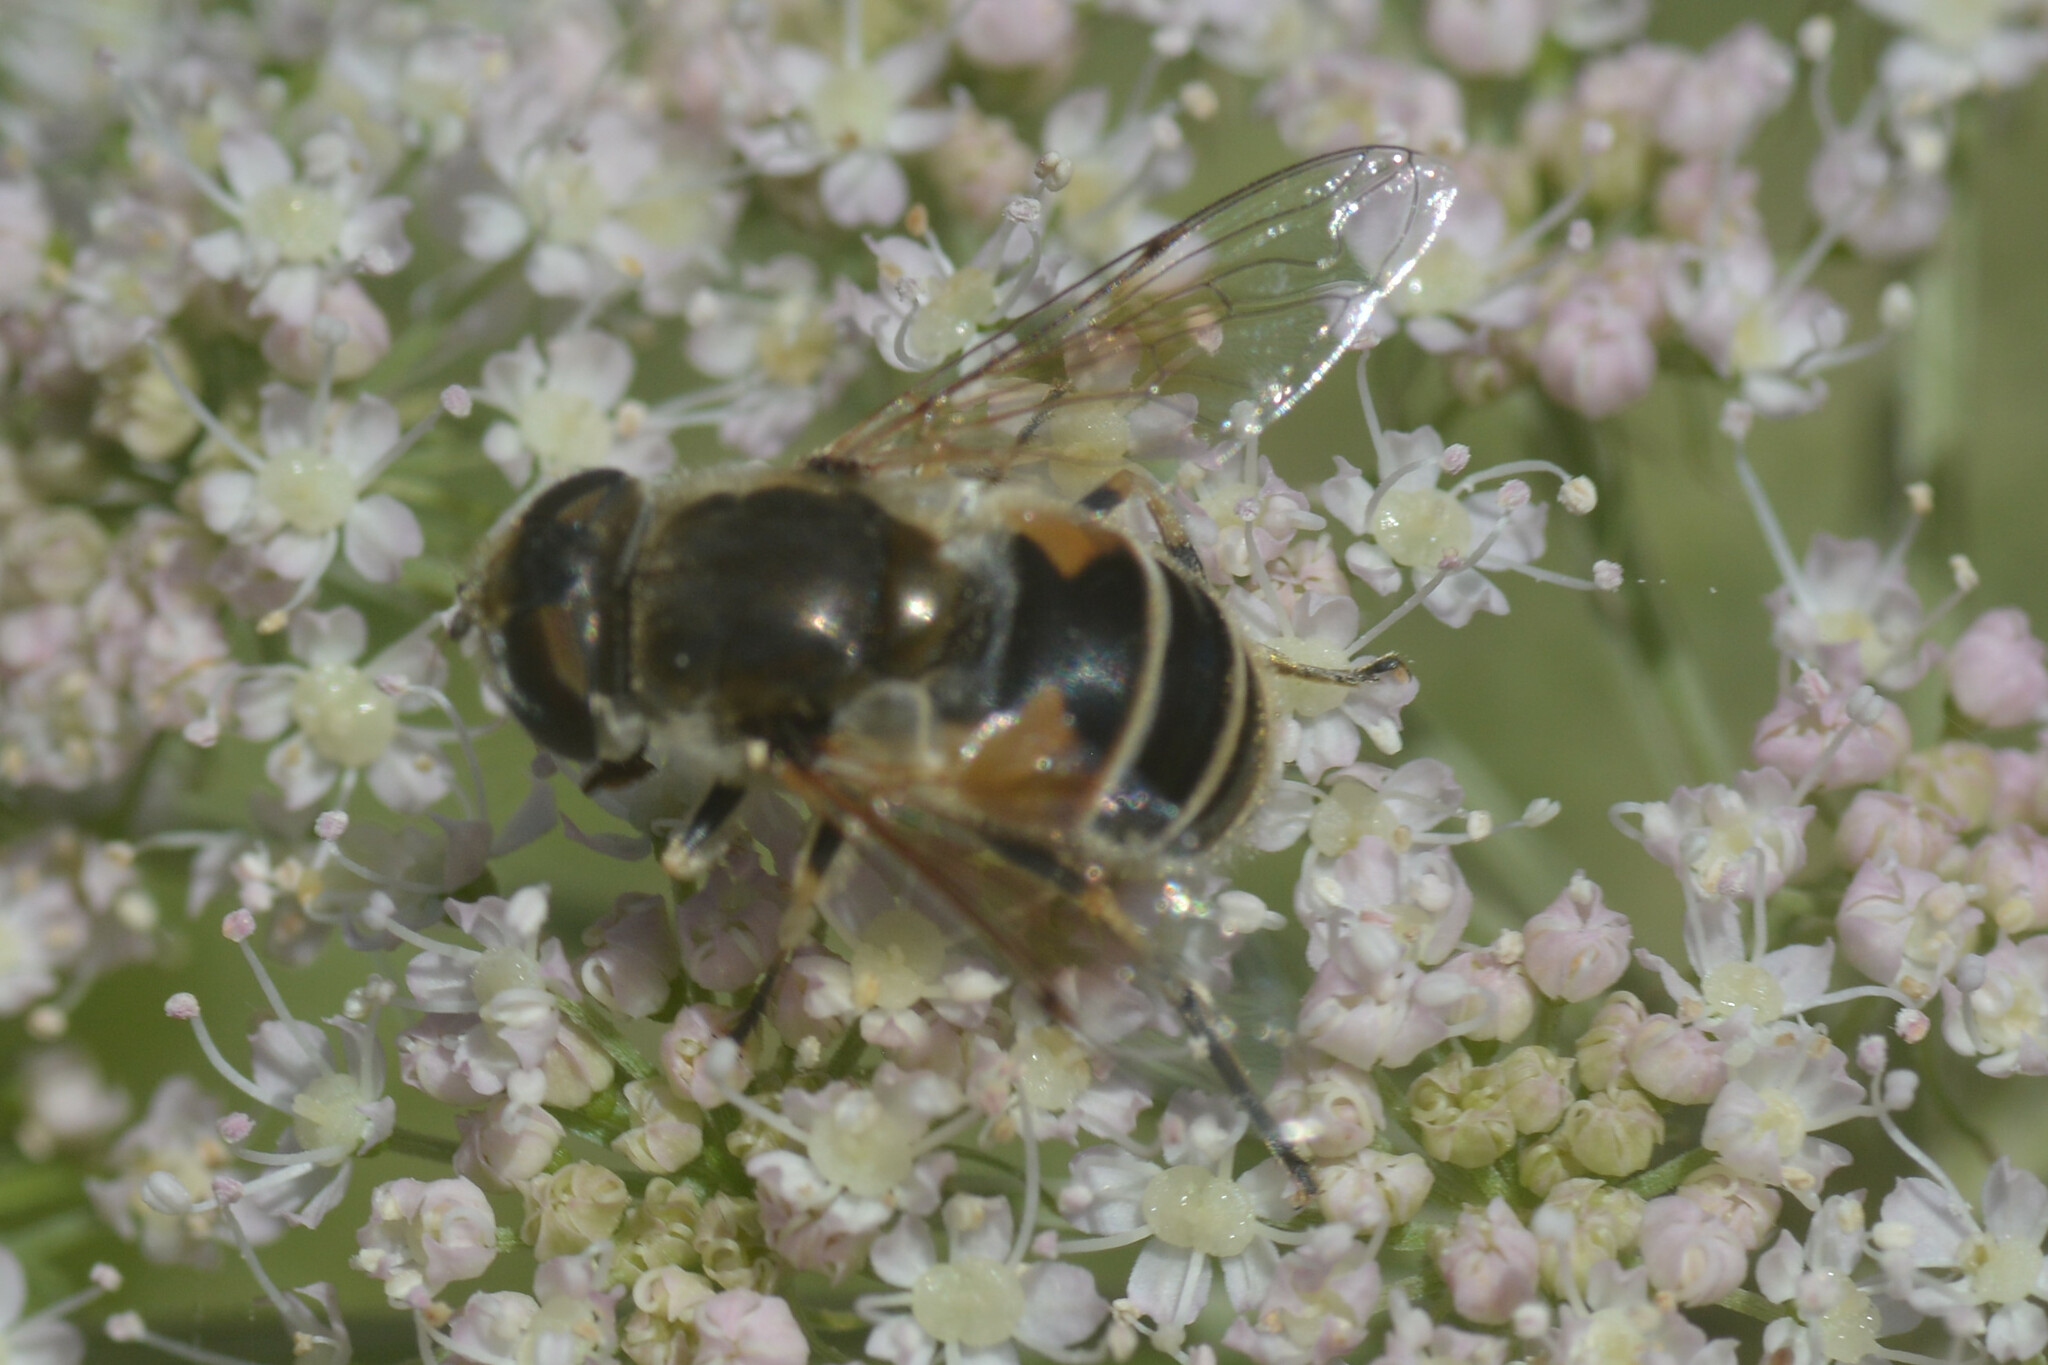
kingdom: Animalia
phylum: Arthropoda
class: Insecta
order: Diptera
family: Syrphidae
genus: Eristalis
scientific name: Eristalis arbustorum
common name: Hover fly
